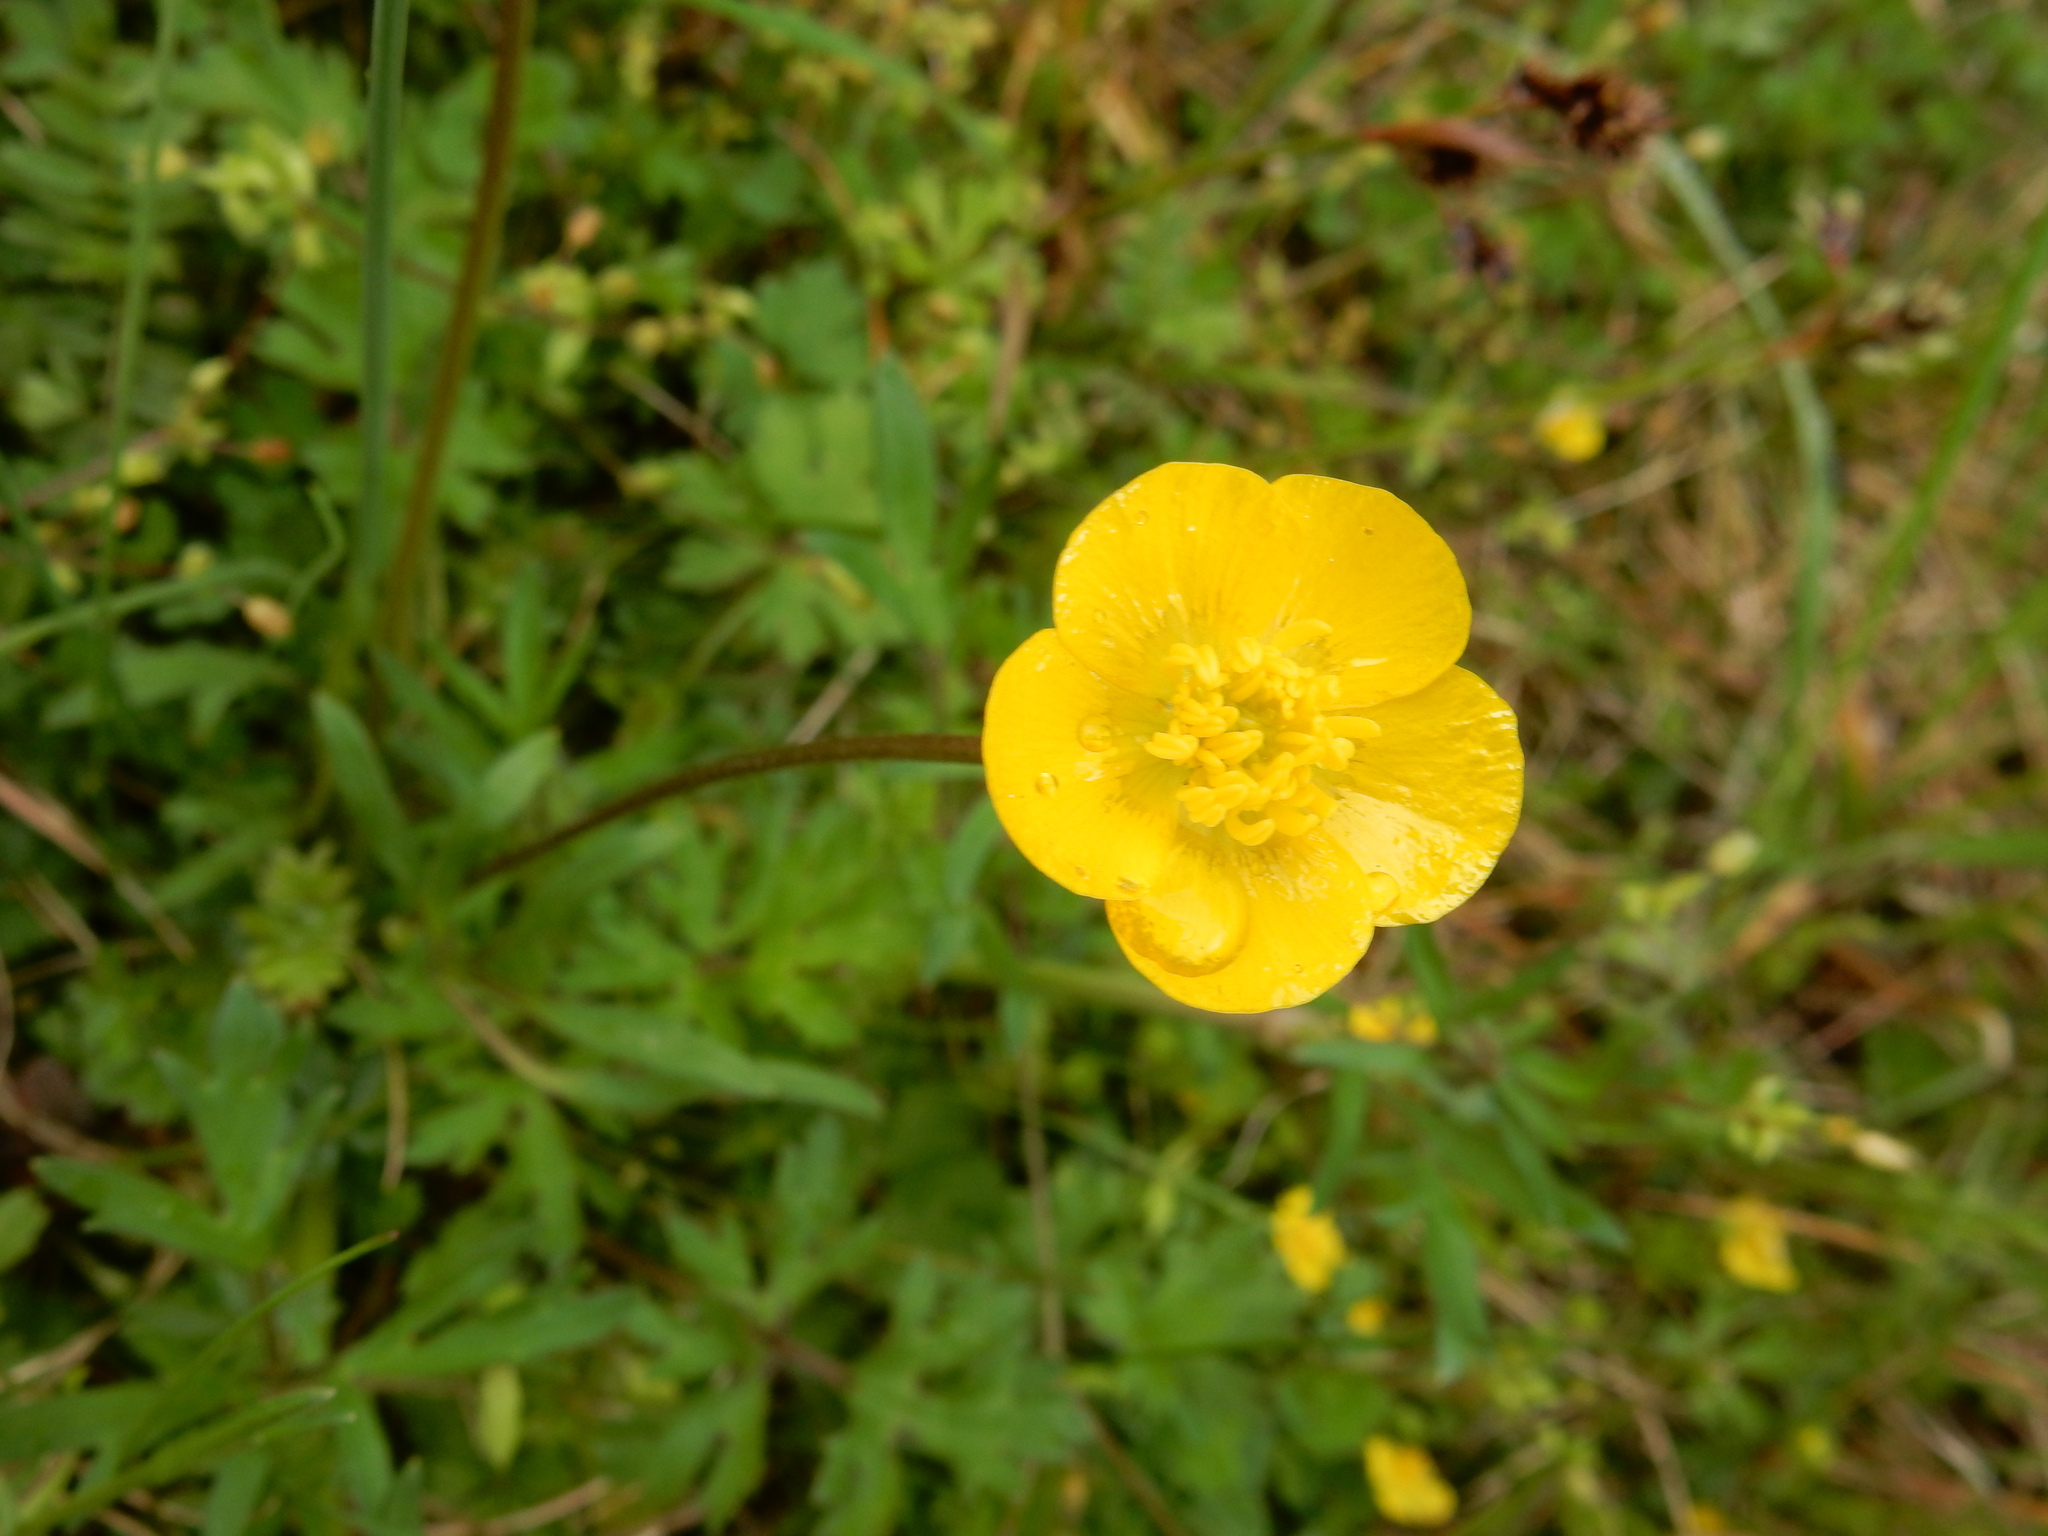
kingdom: Plantae
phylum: Tracheophyta
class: Magnoliopsida
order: Ranunculales
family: Ranunculaceae
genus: Ranunculus
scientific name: Ranunculus bulbosus
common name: Bulbous buttercup
